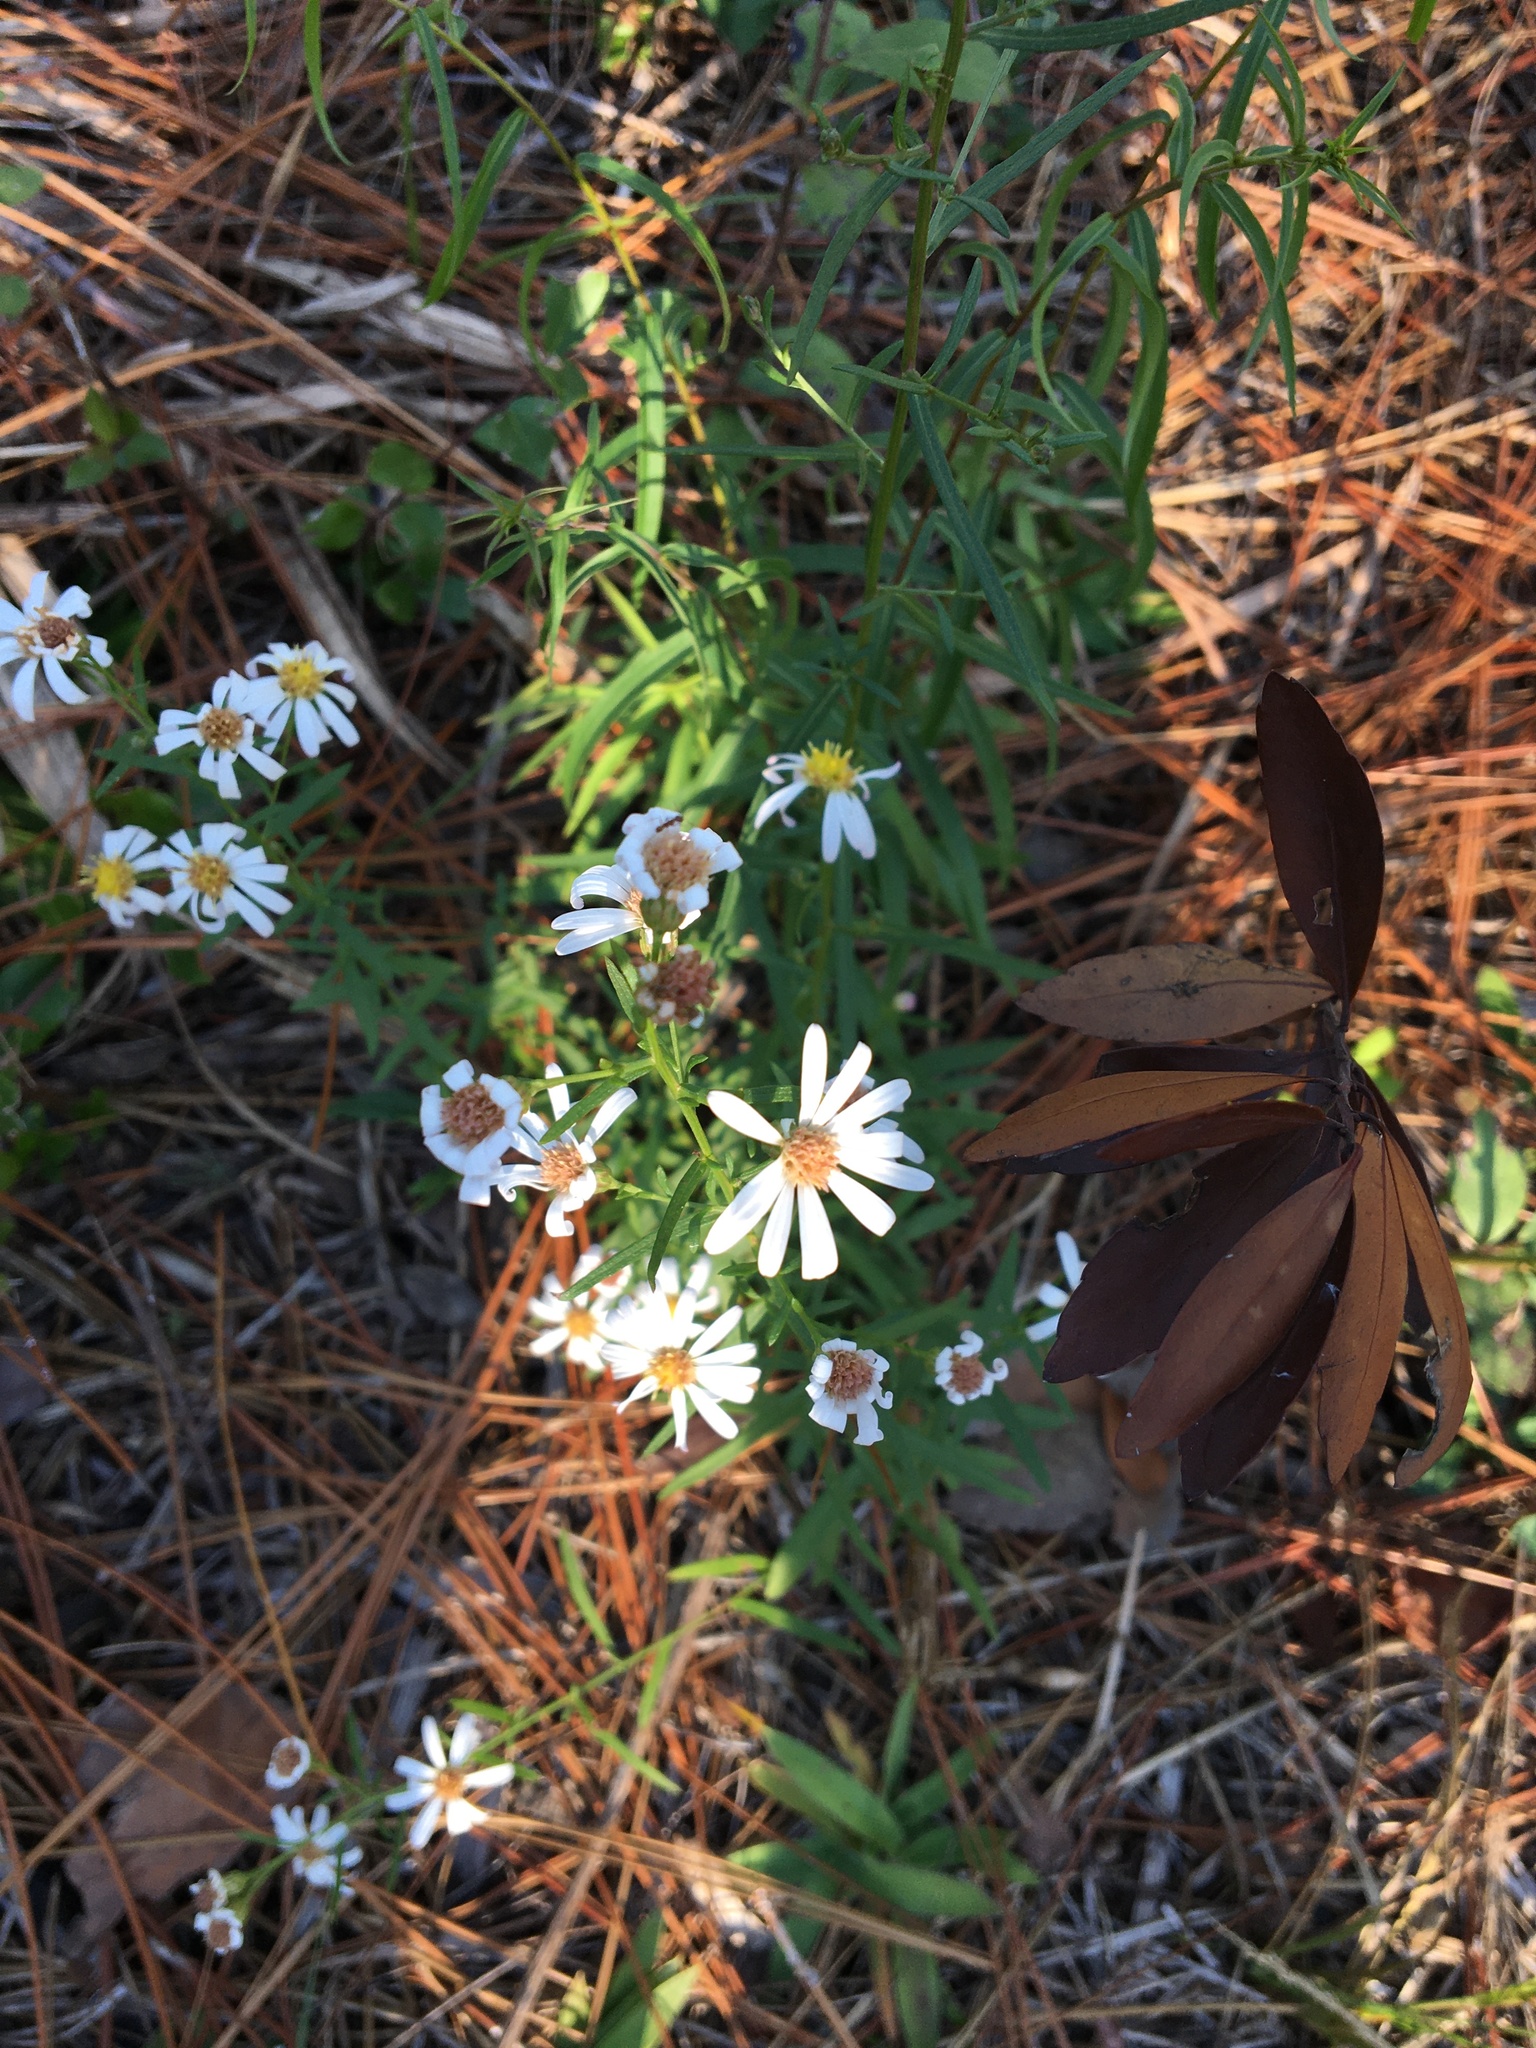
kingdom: Plantae
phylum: Tracheophyta
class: Magnoliopsida
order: Asterales
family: Asteraceae
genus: Symphyotrichum
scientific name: Symphyotrichum dumosum
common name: Bushy aster
